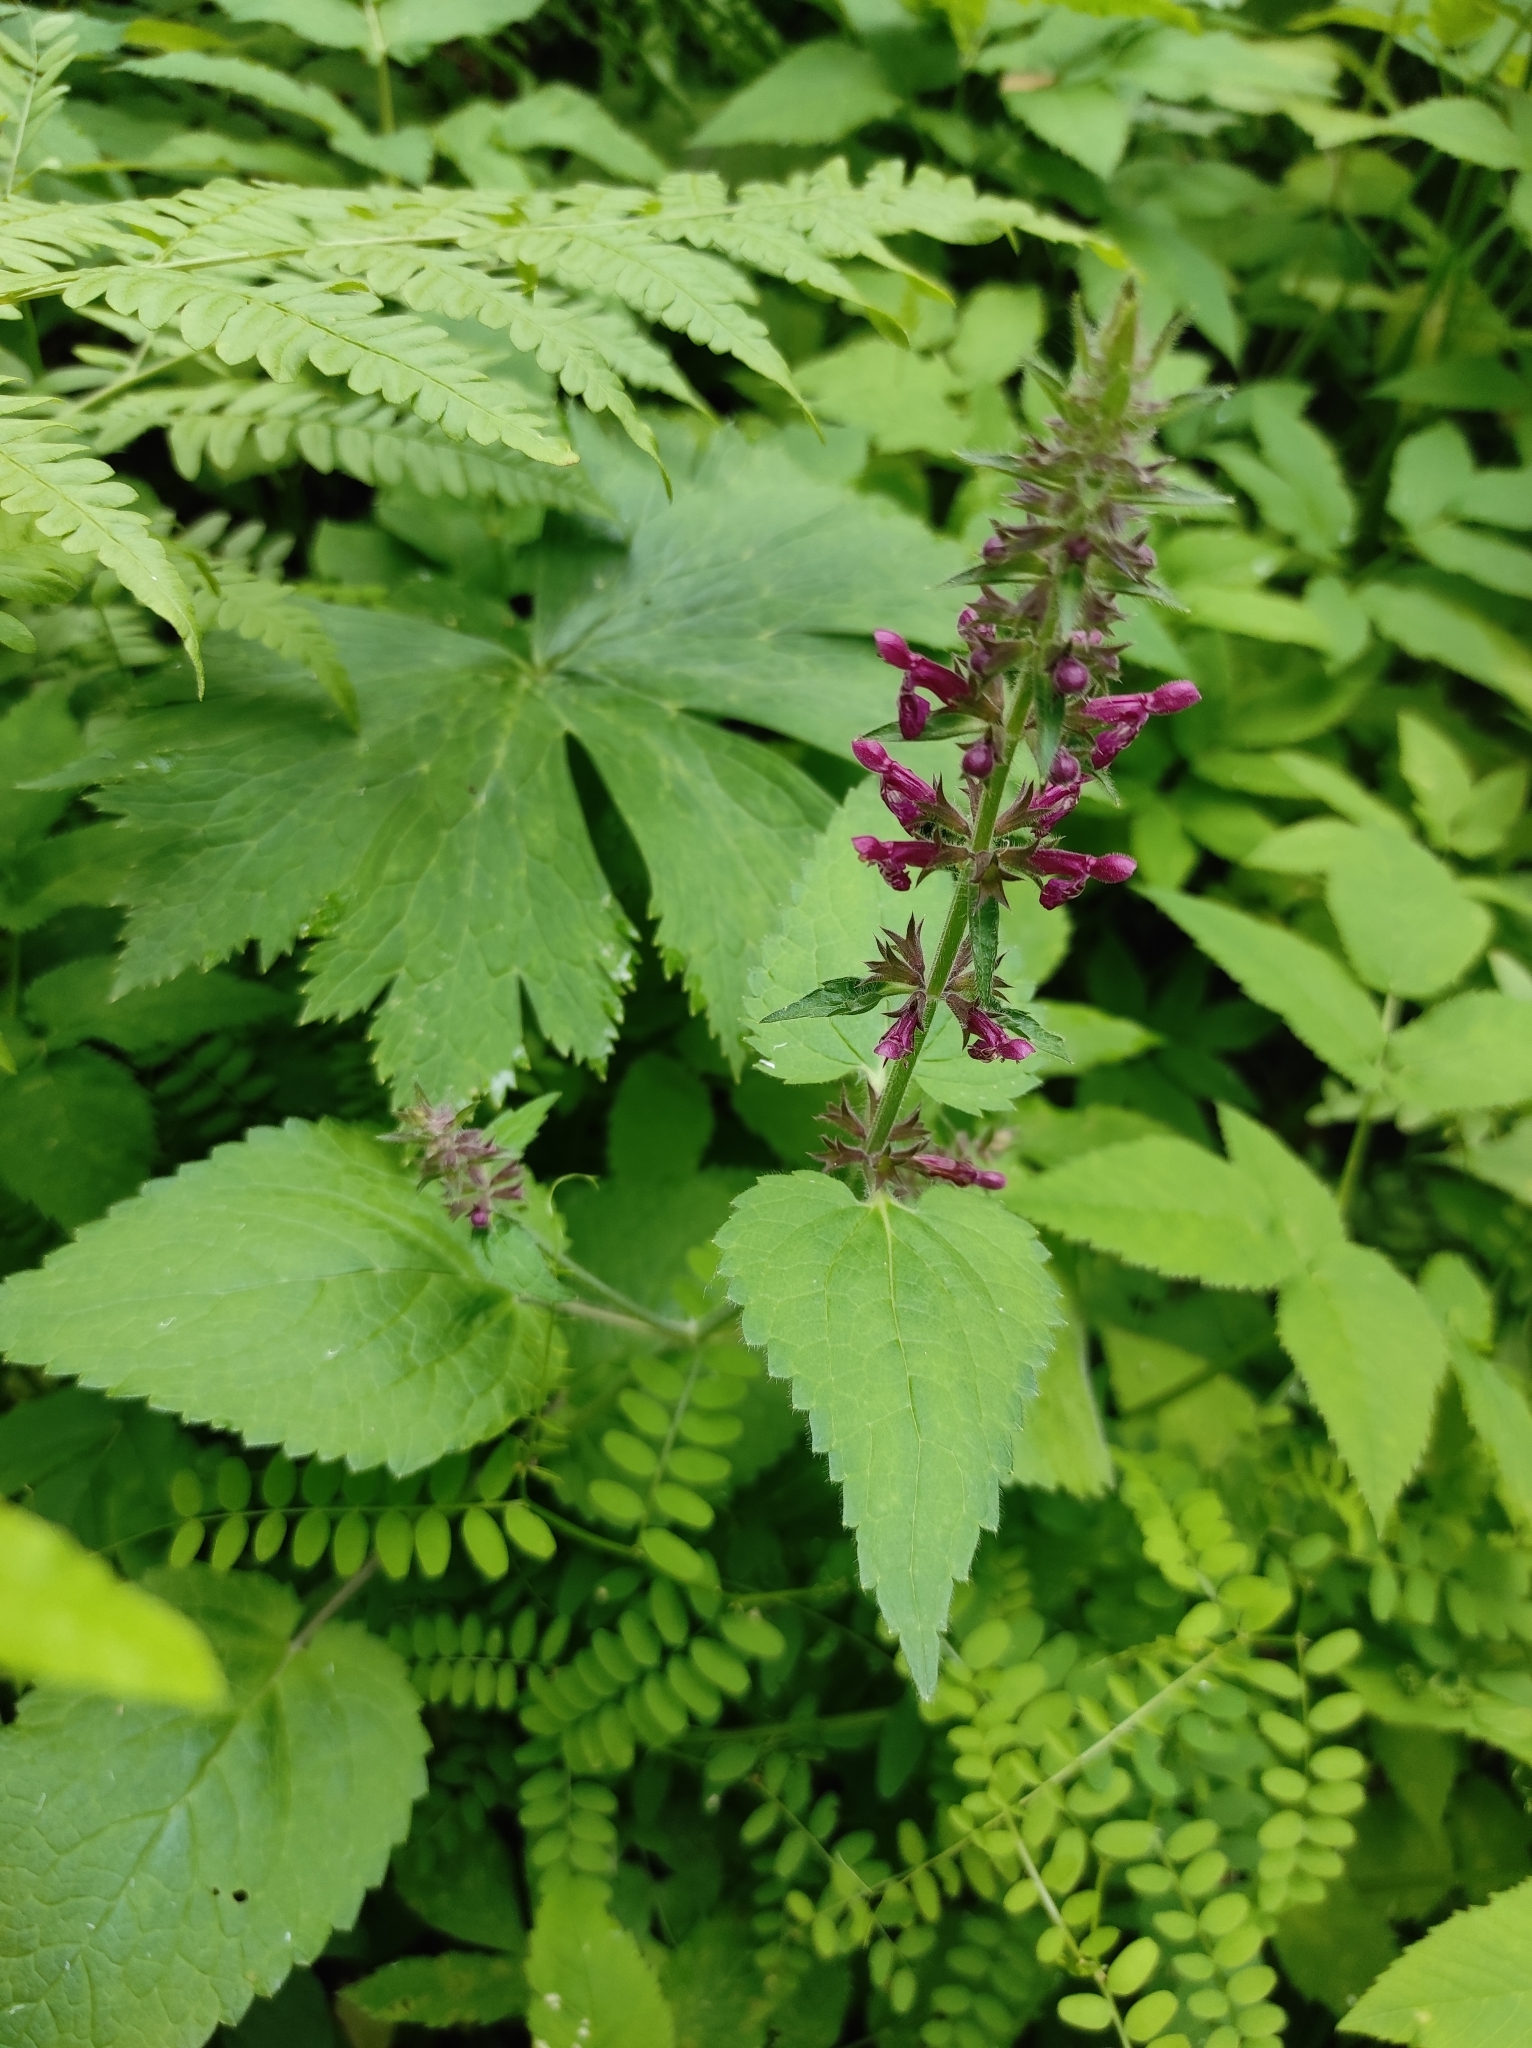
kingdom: Plantae
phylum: Tracheophyta
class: Magnoliopsida
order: Lamiales
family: Lamiaceae
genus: Stachys
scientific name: Stachys sylvatica
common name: Hedge woundwort
